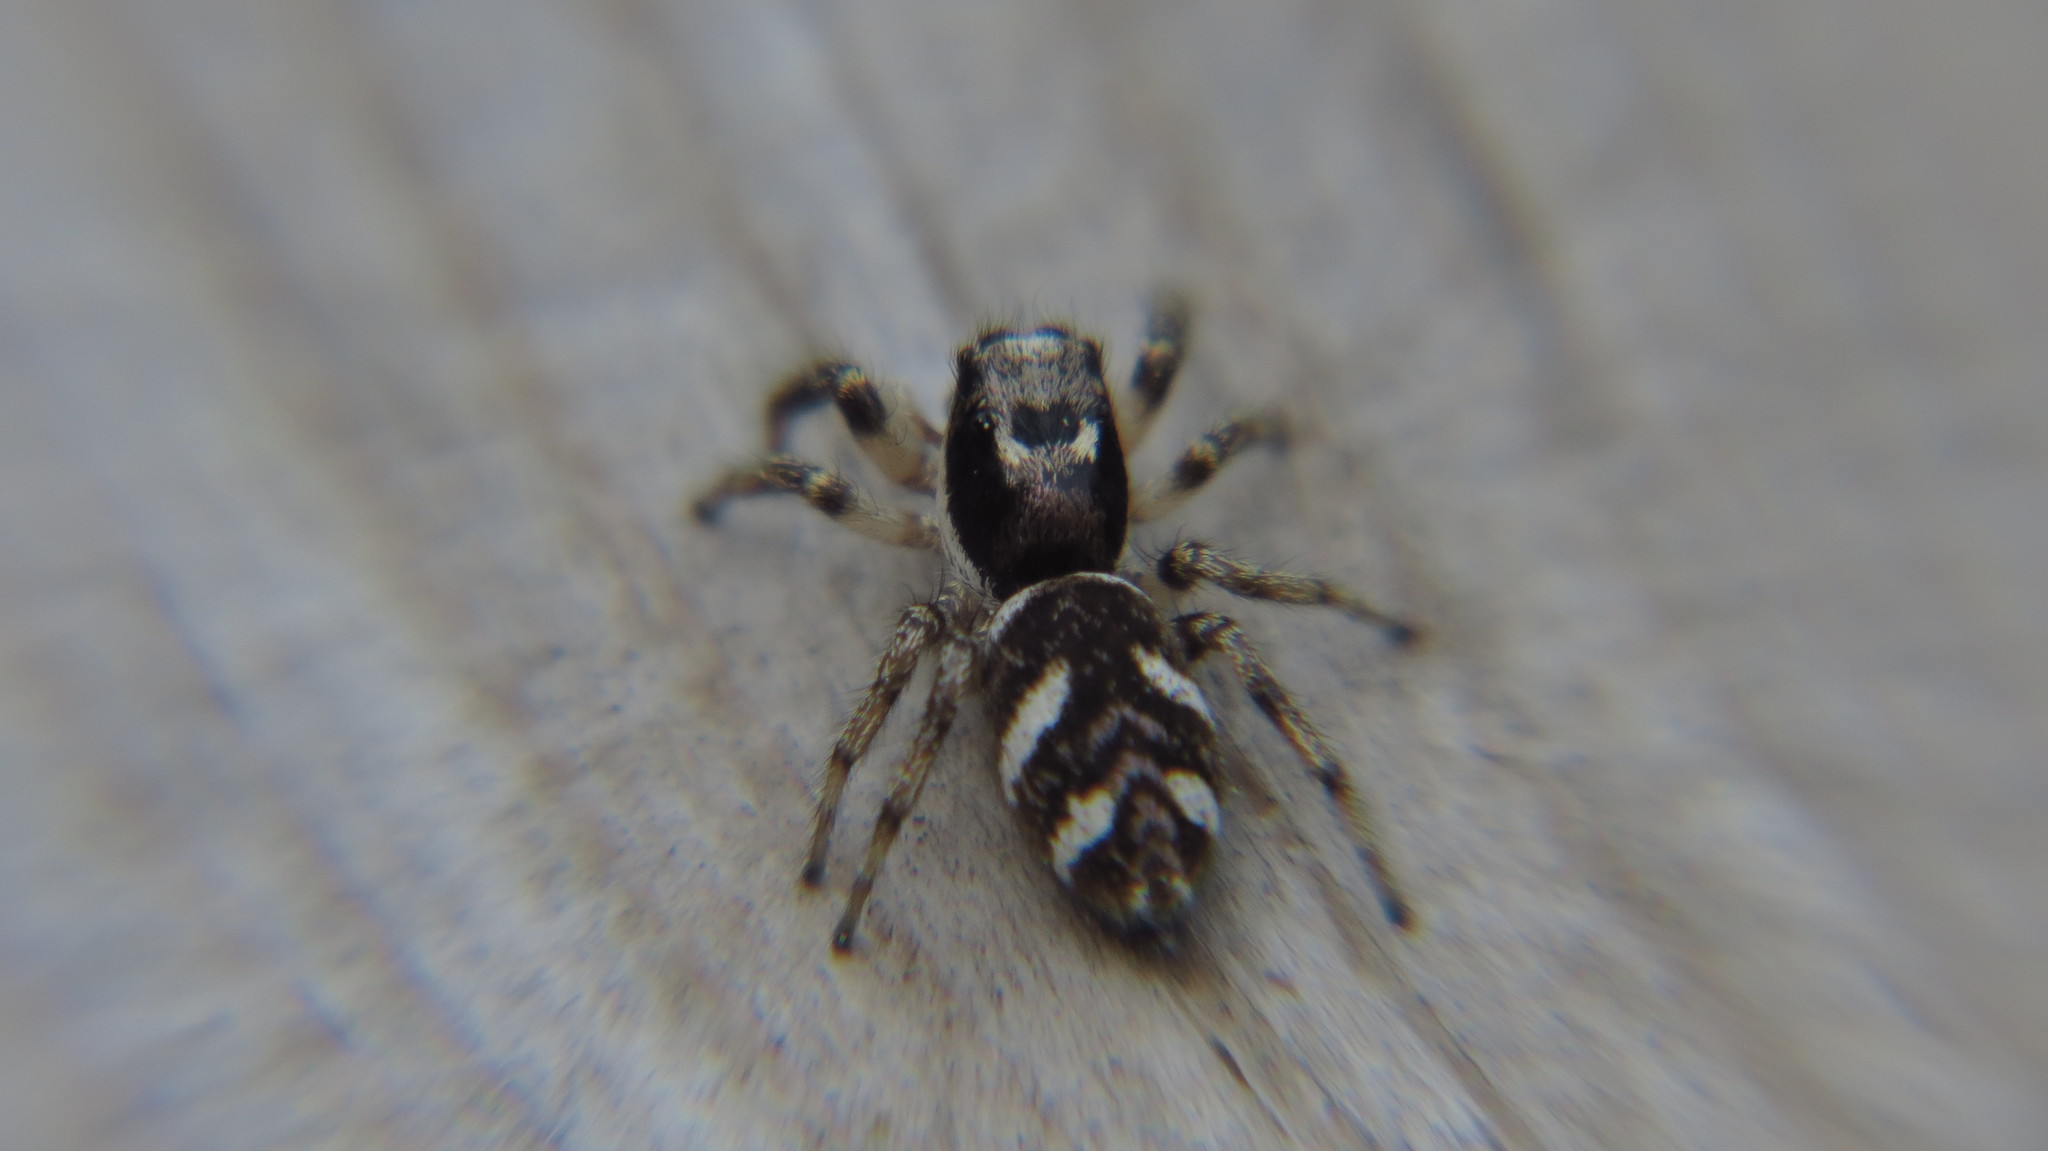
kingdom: Animalia
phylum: Arthropoda
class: Arachnida
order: Araneae
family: Salticidae
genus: Salticus
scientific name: Salticus scenicus
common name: Zebra jumper
